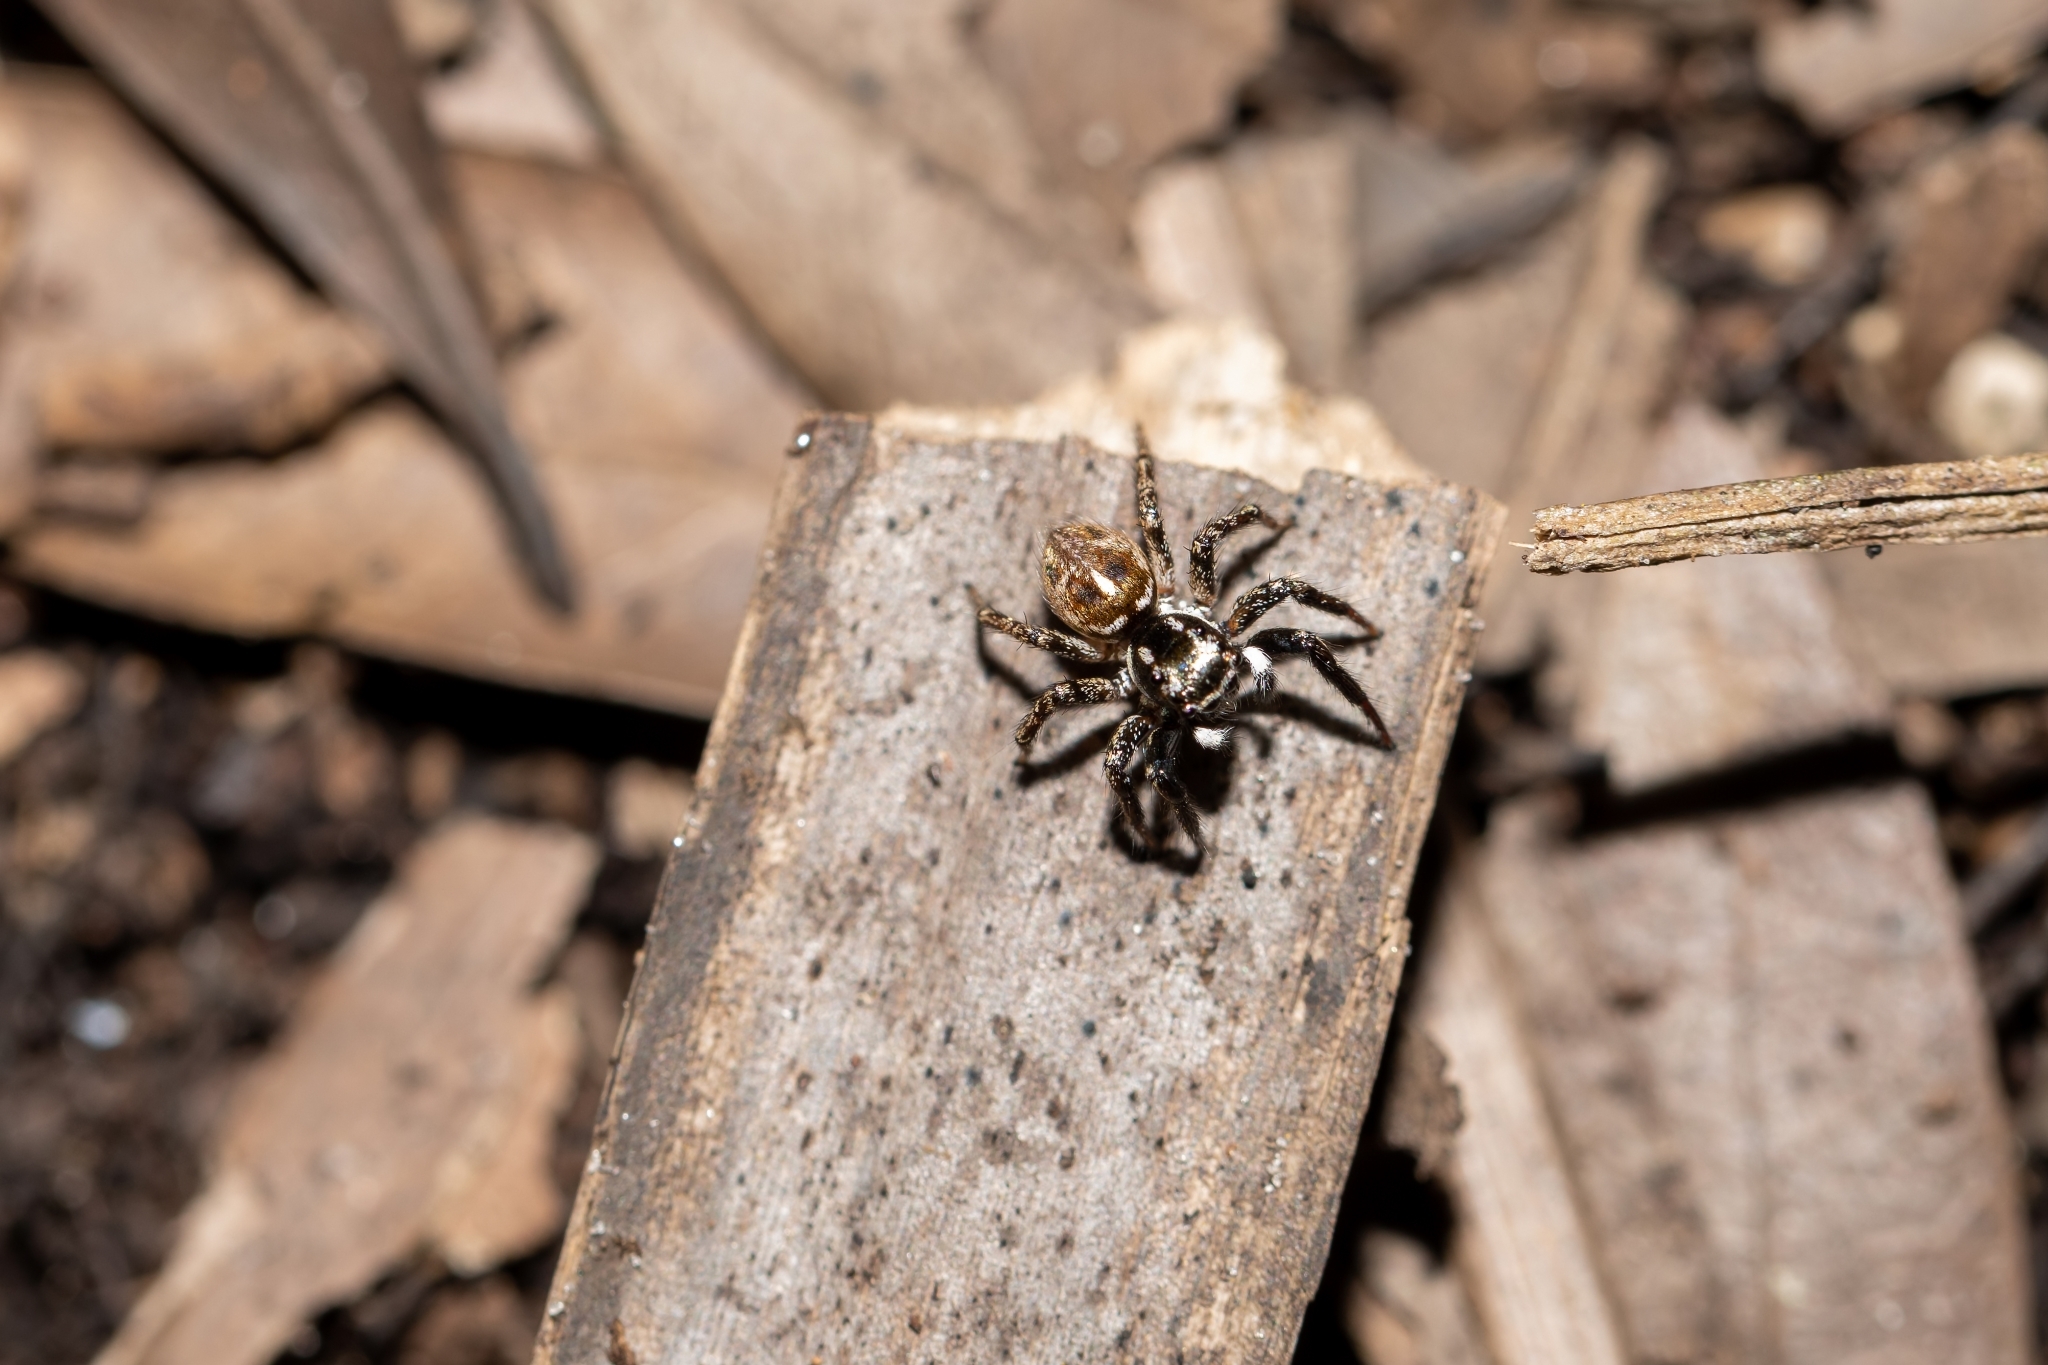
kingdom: Animalia
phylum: Arthropoda
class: Arachnida
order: Araneae
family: Salticidae
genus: Anasaitis
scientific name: Anasaitis canosa
